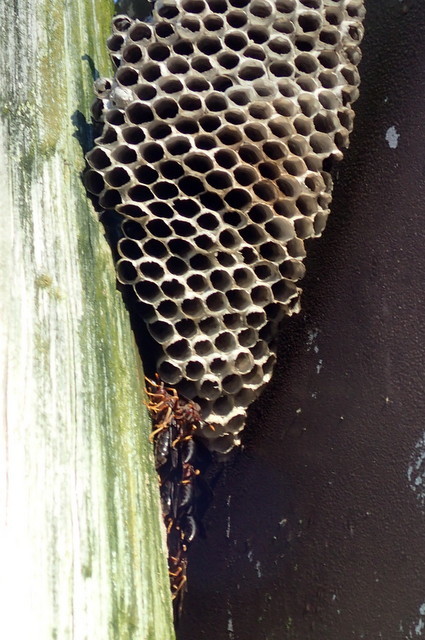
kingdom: Animalia
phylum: Arthropoda
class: Insecta
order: Hymenoptera
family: Eumenidae
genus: Polistes
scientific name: Polistes annularis
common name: Ringed paper wasp
